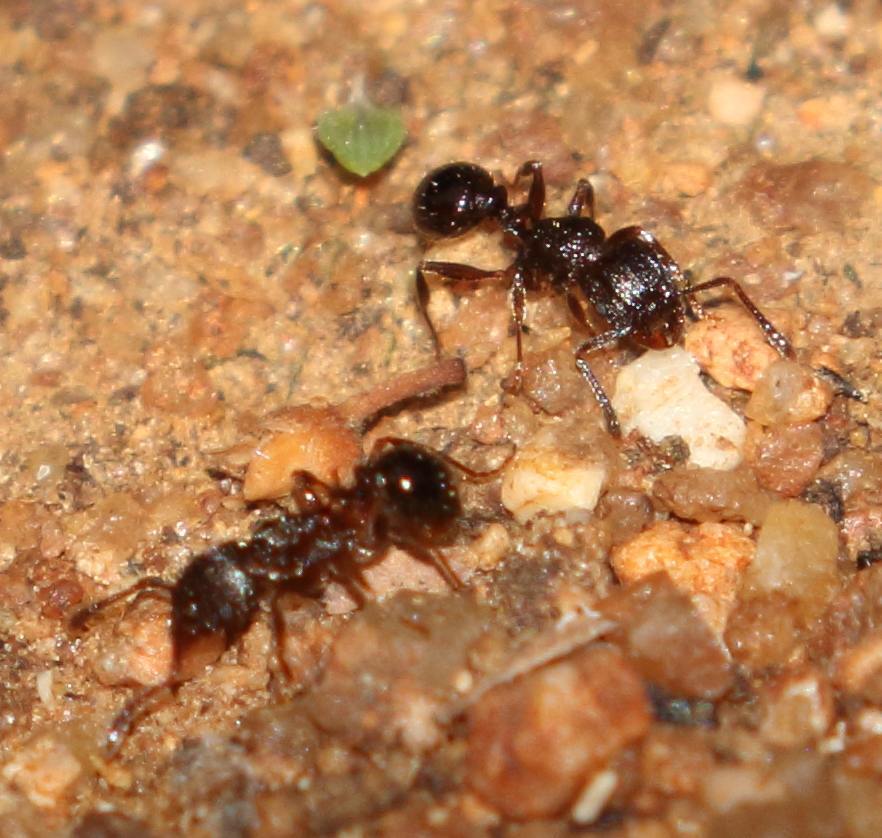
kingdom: Animalia
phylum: Arthropoda
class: Insecta
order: Hymenoptera
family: Formicidae
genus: Tetramorium
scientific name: Tetramorium grassii
